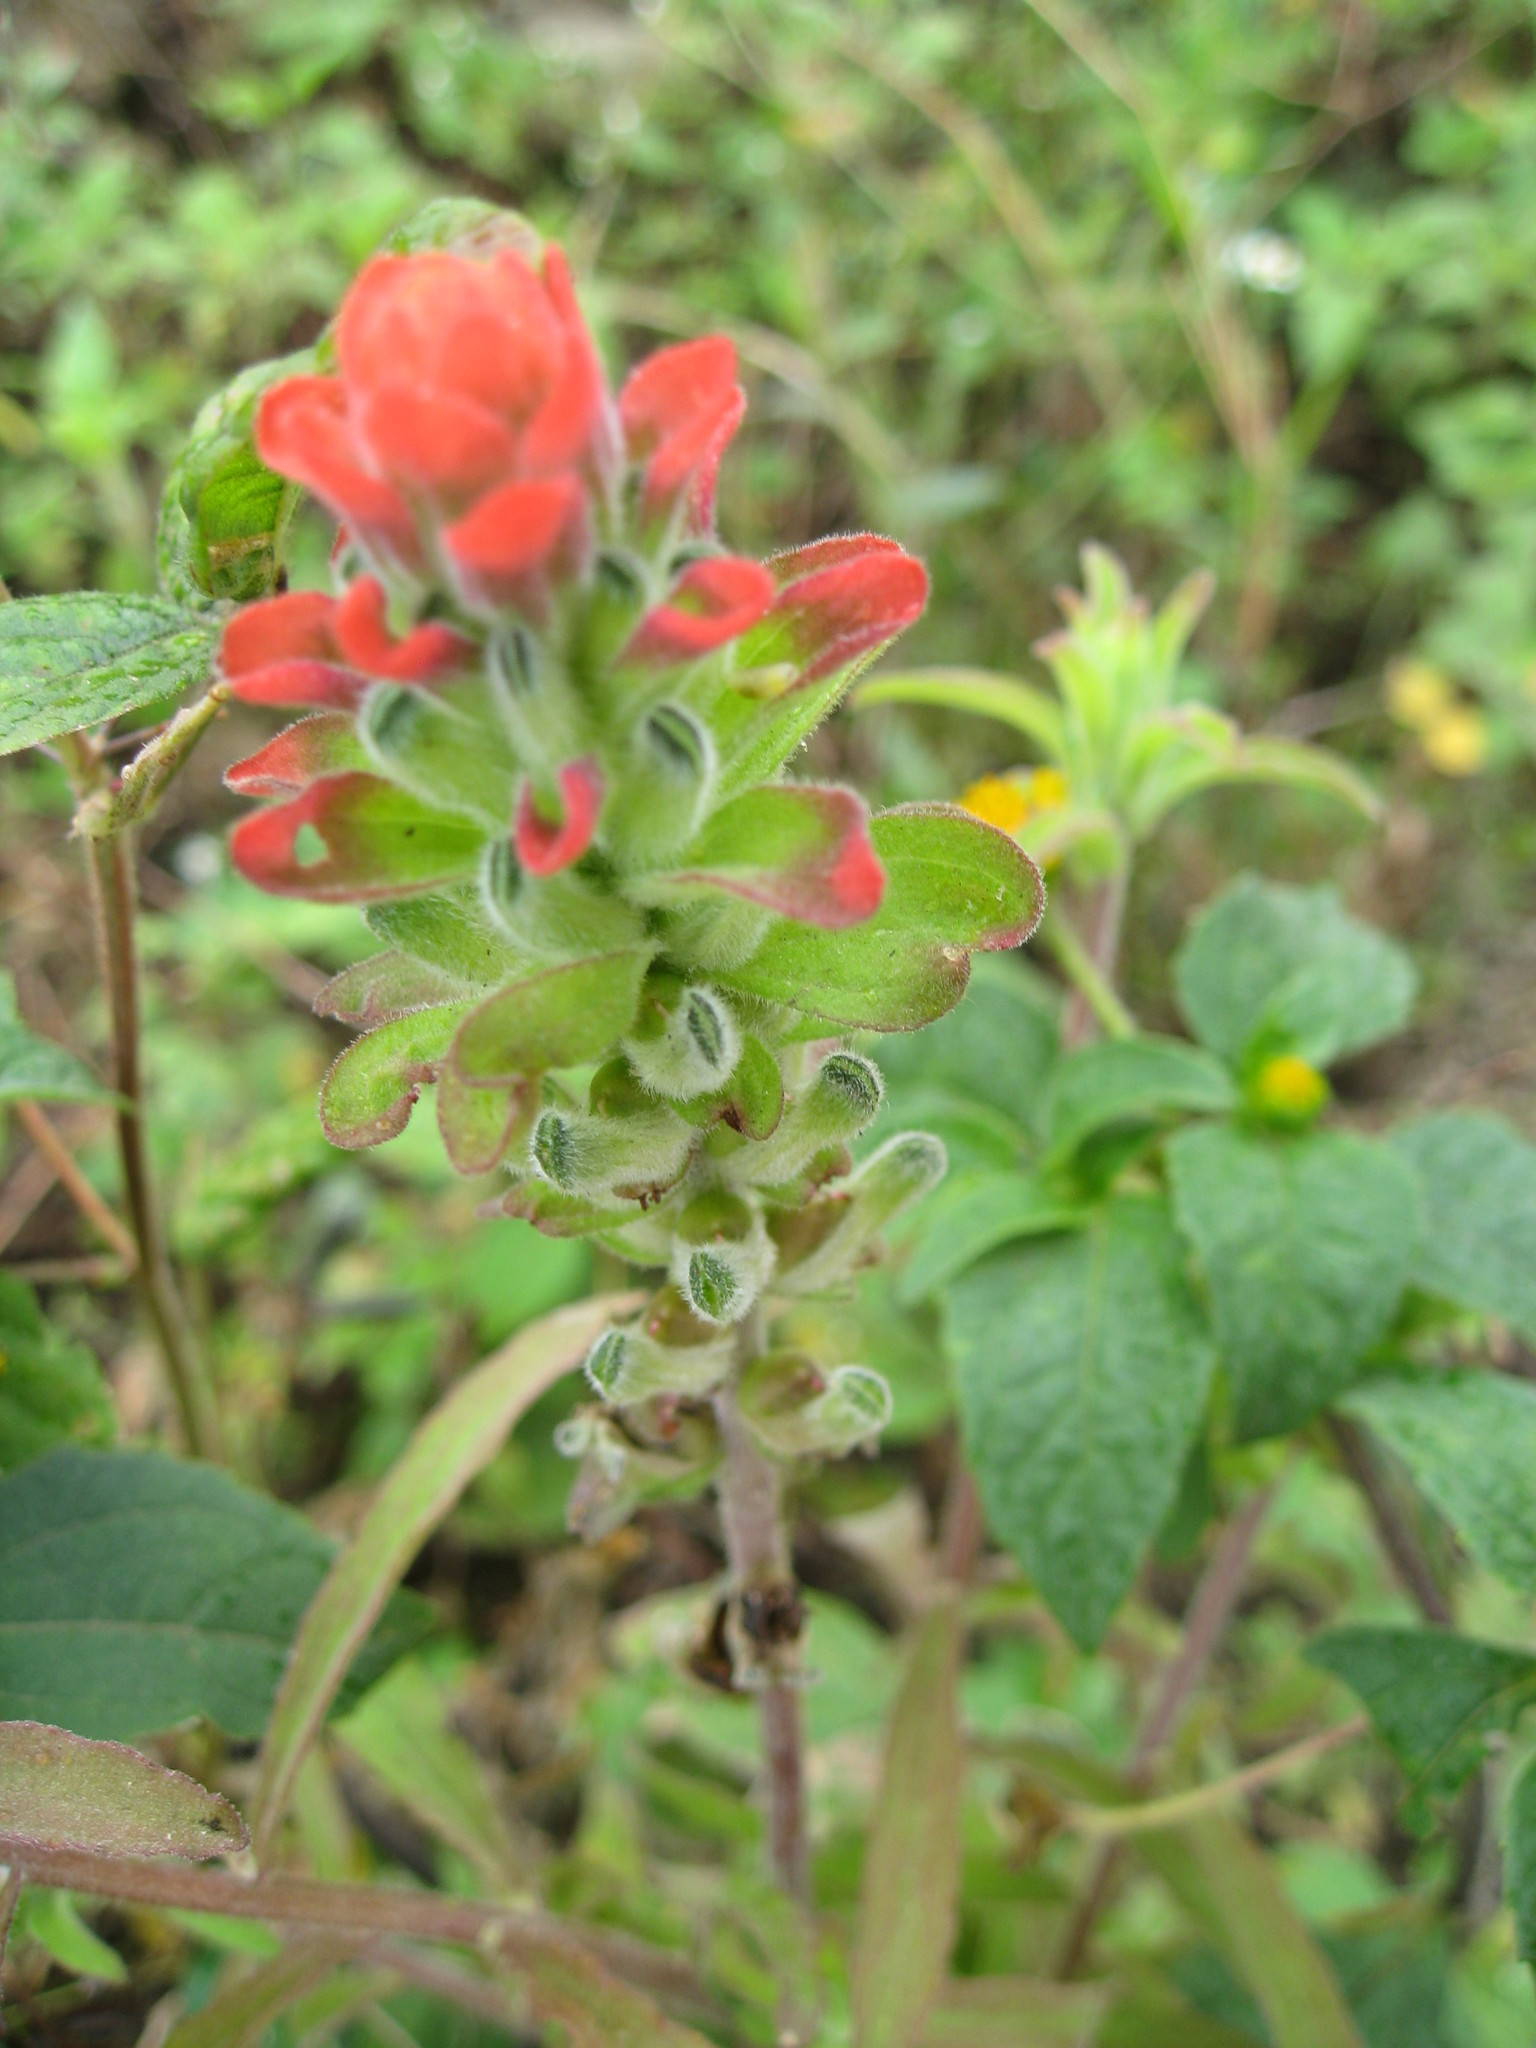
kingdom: Plantae
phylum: Tracheophyta
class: Magnoliopsida
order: Lamiales
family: Orobanchaceae
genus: Castilleja
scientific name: Castilleja arvensis
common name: Indian paintbrush
